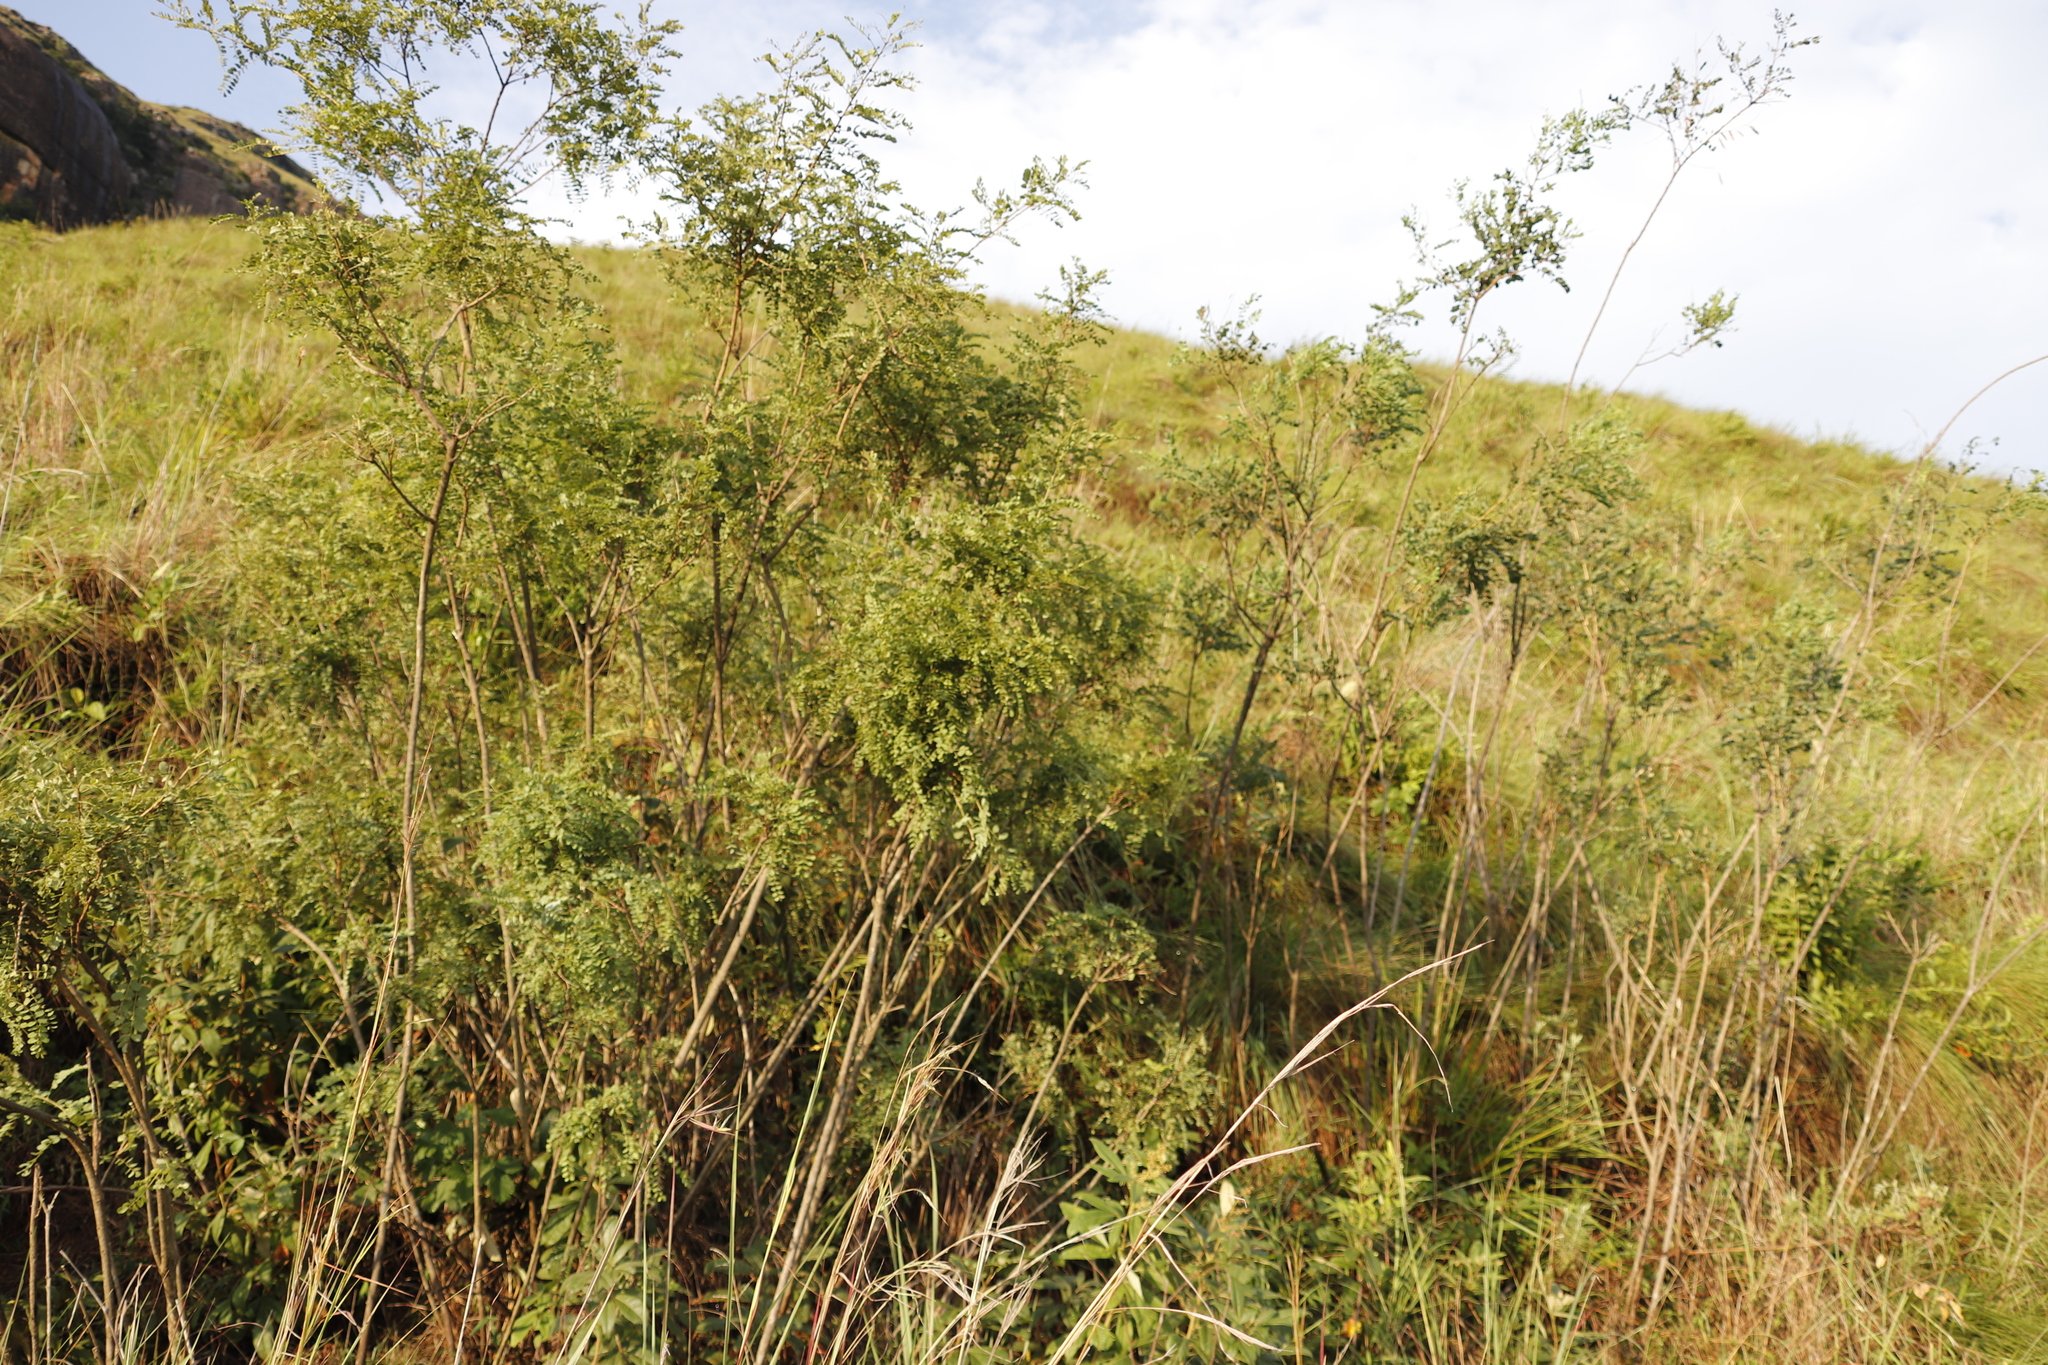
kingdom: Plantae
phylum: Tracheophyta
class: Magnoliopsida
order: Fabales
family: Fabaceae
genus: Calpurnia
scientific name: Calpurnia sericea
